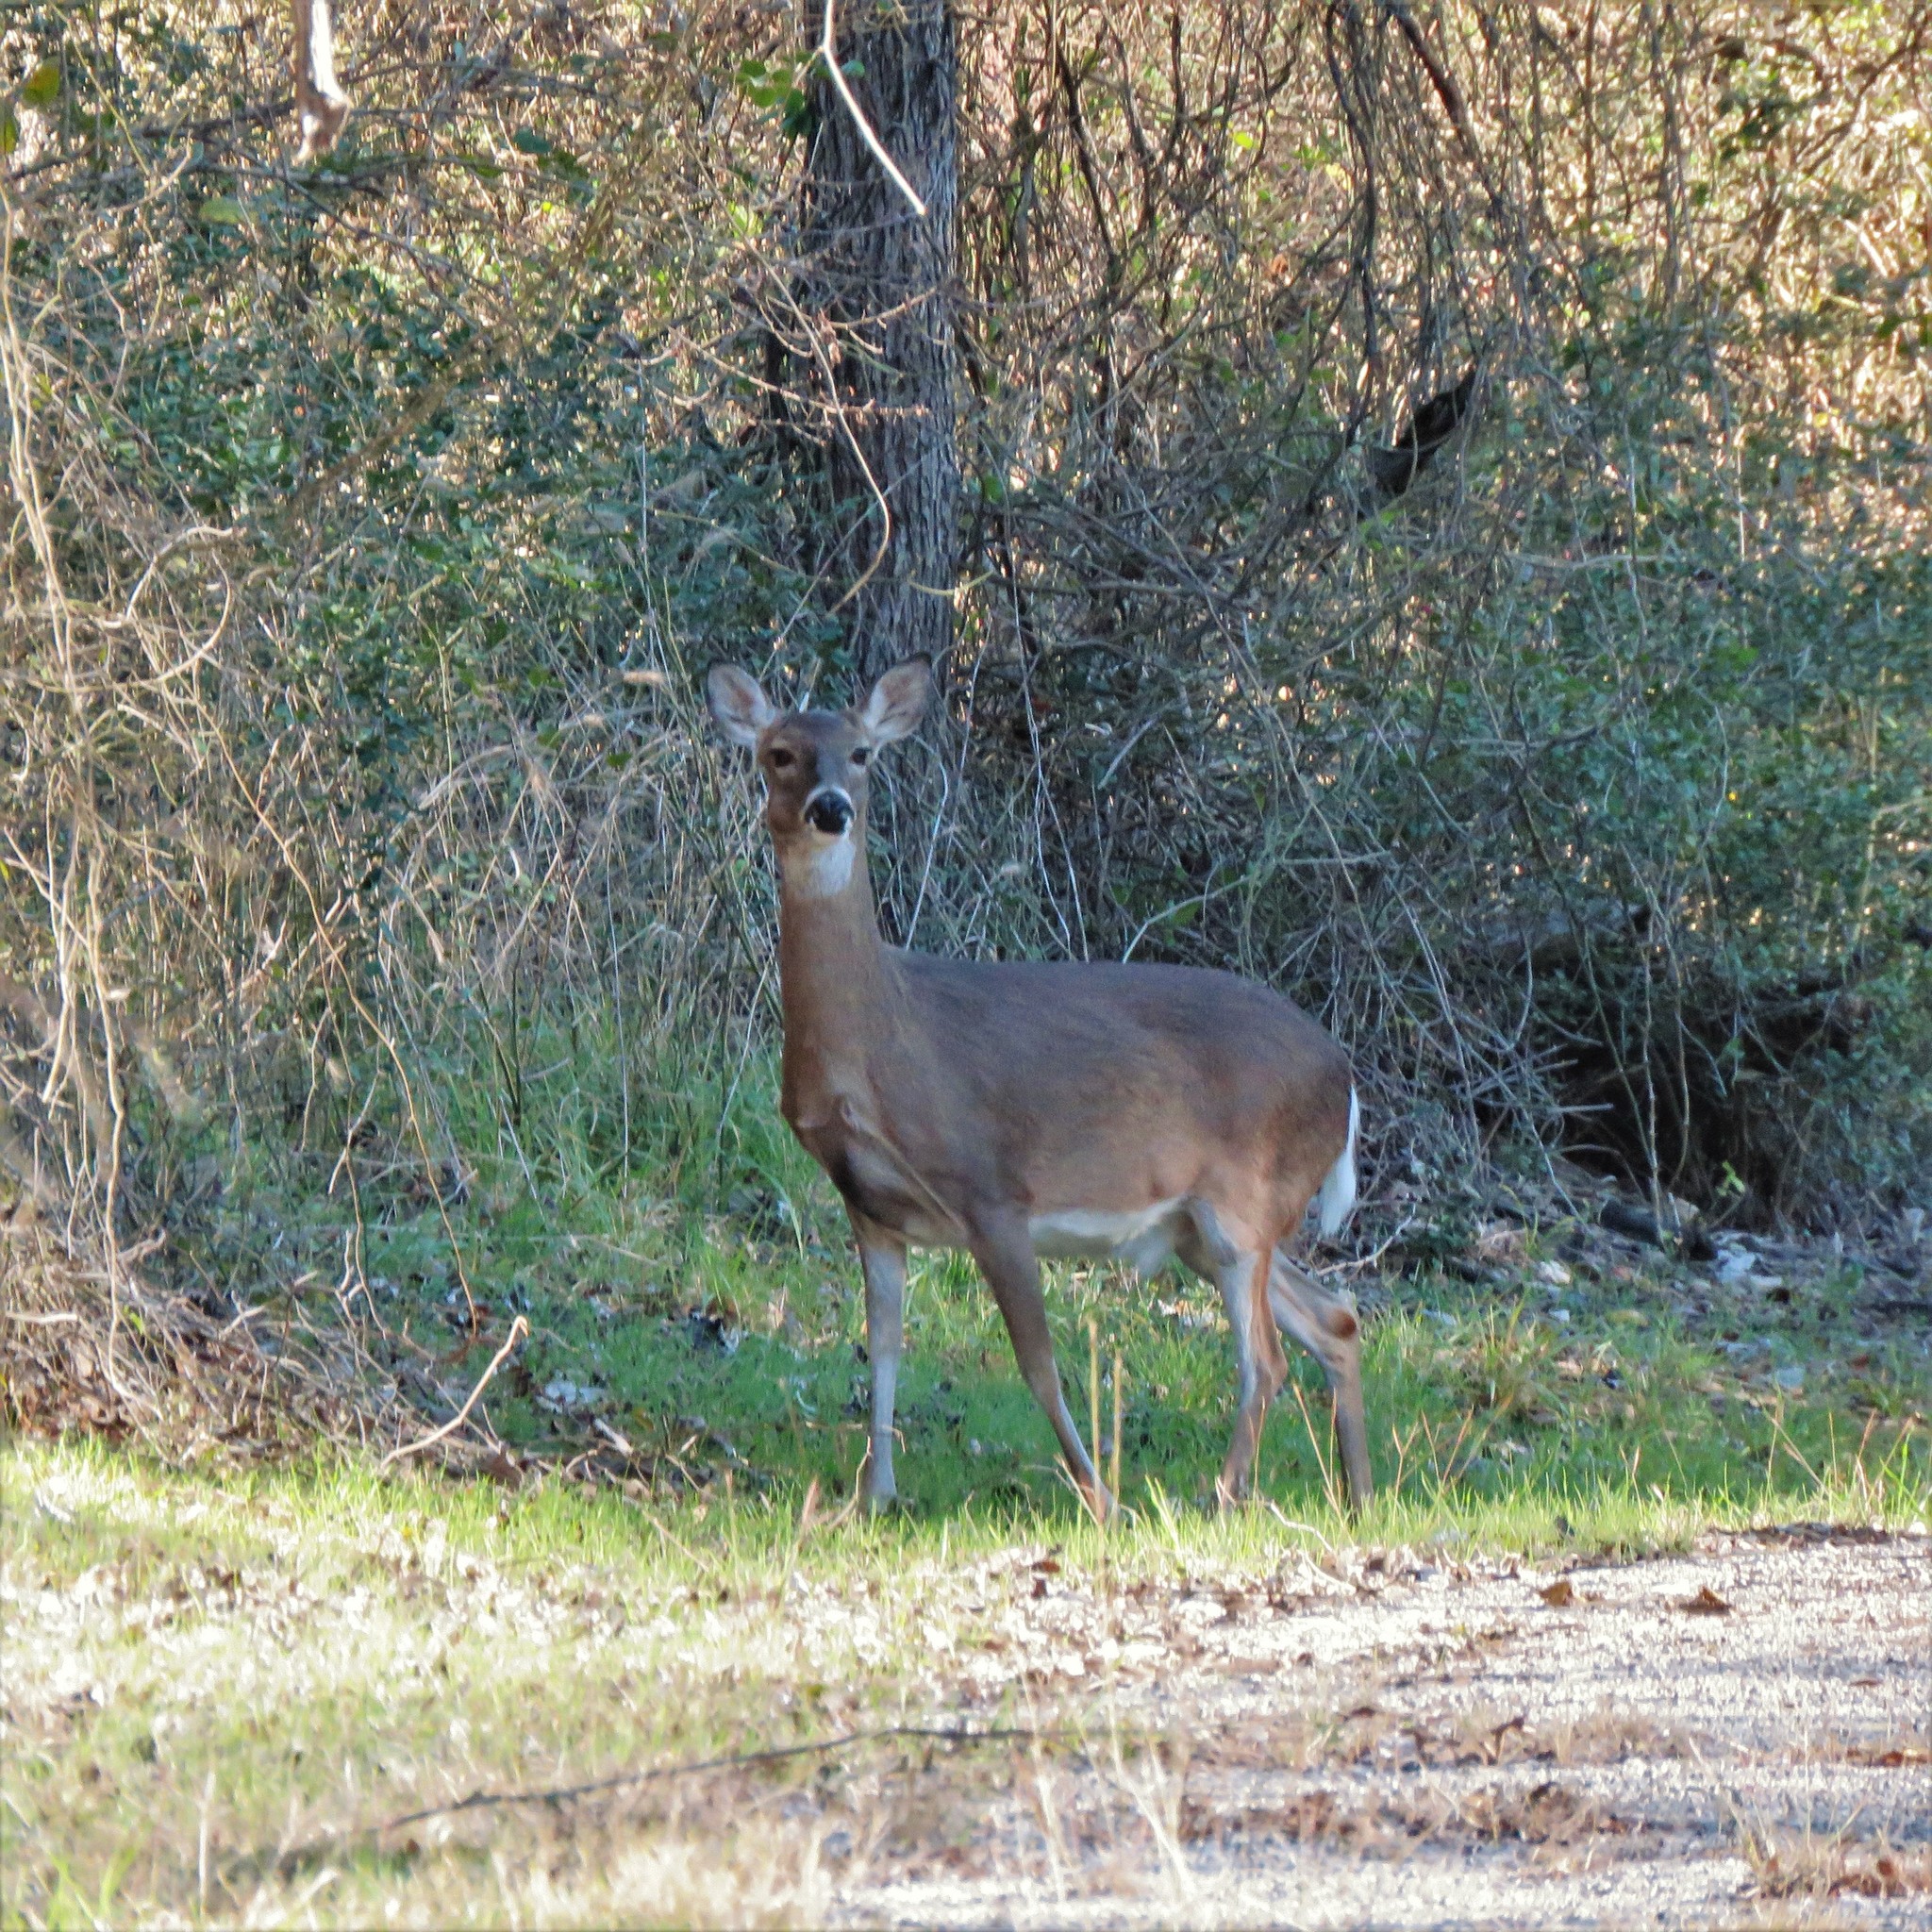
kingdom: Animalia
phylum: Chordata
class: Mammalia
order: Artiodactyla
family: Cervidae
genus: Odocoileus
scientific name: Odocoileus virginianus
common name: White-tailed deer
